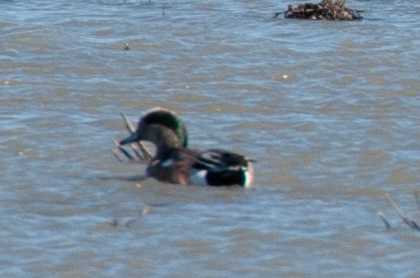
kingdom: Animalia
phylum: Chordata
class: Aves
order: Anseriformes
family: Anatidae
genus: Mareca
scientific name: Mareca americana
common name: American wigeon
